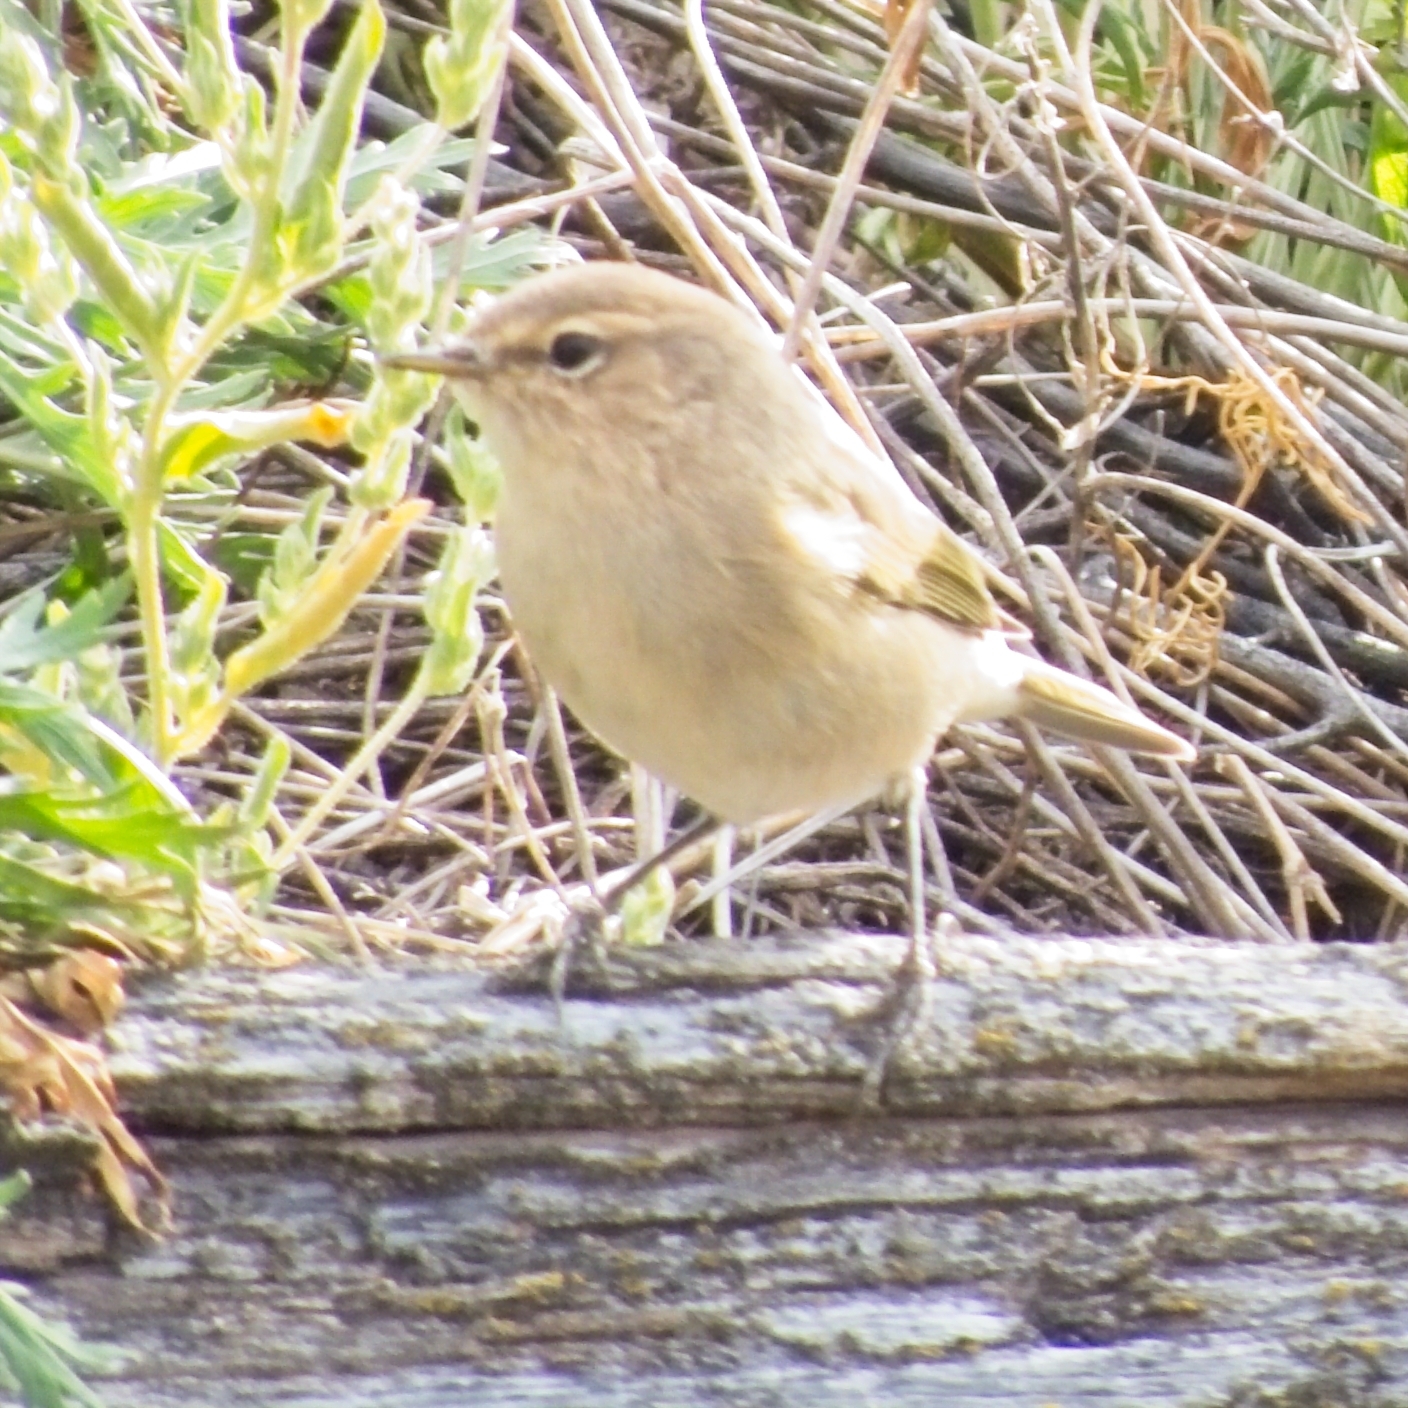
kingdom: Animalia
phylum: Chordata
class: Aves
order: Passeriformes
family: Phylloscopidae
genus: Phylloscopus
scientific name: Phylloscopus collybita
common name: Common chiffchaff
